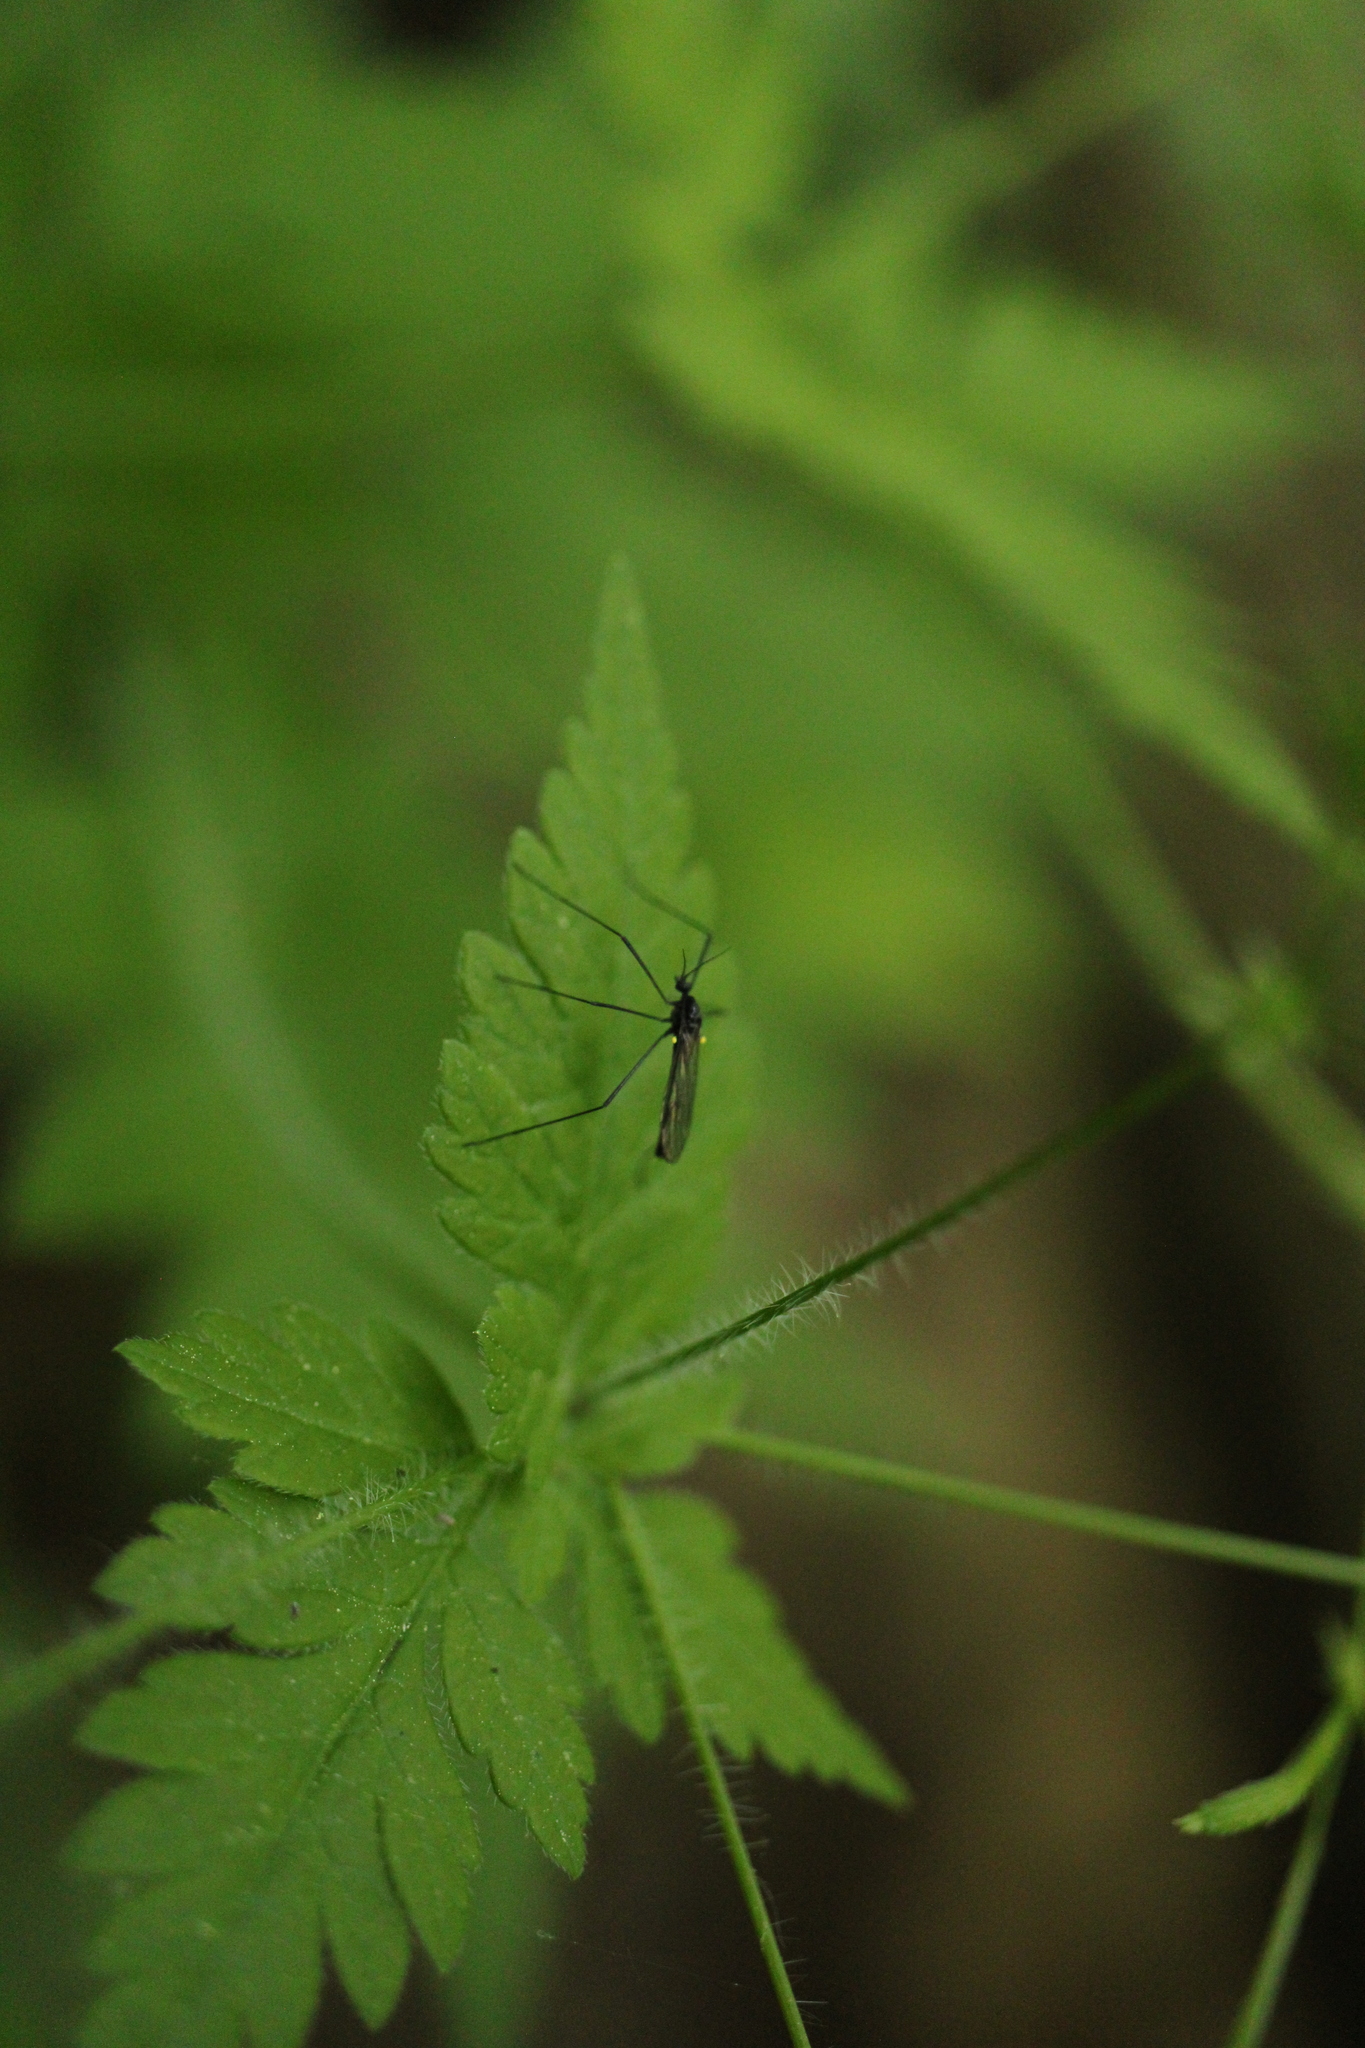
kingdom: Animalia
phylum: Arthropoda
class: Insecta
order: Diptera
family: Limoniidae
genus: Gnophomyia
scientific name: Gnophomyia tristissima
